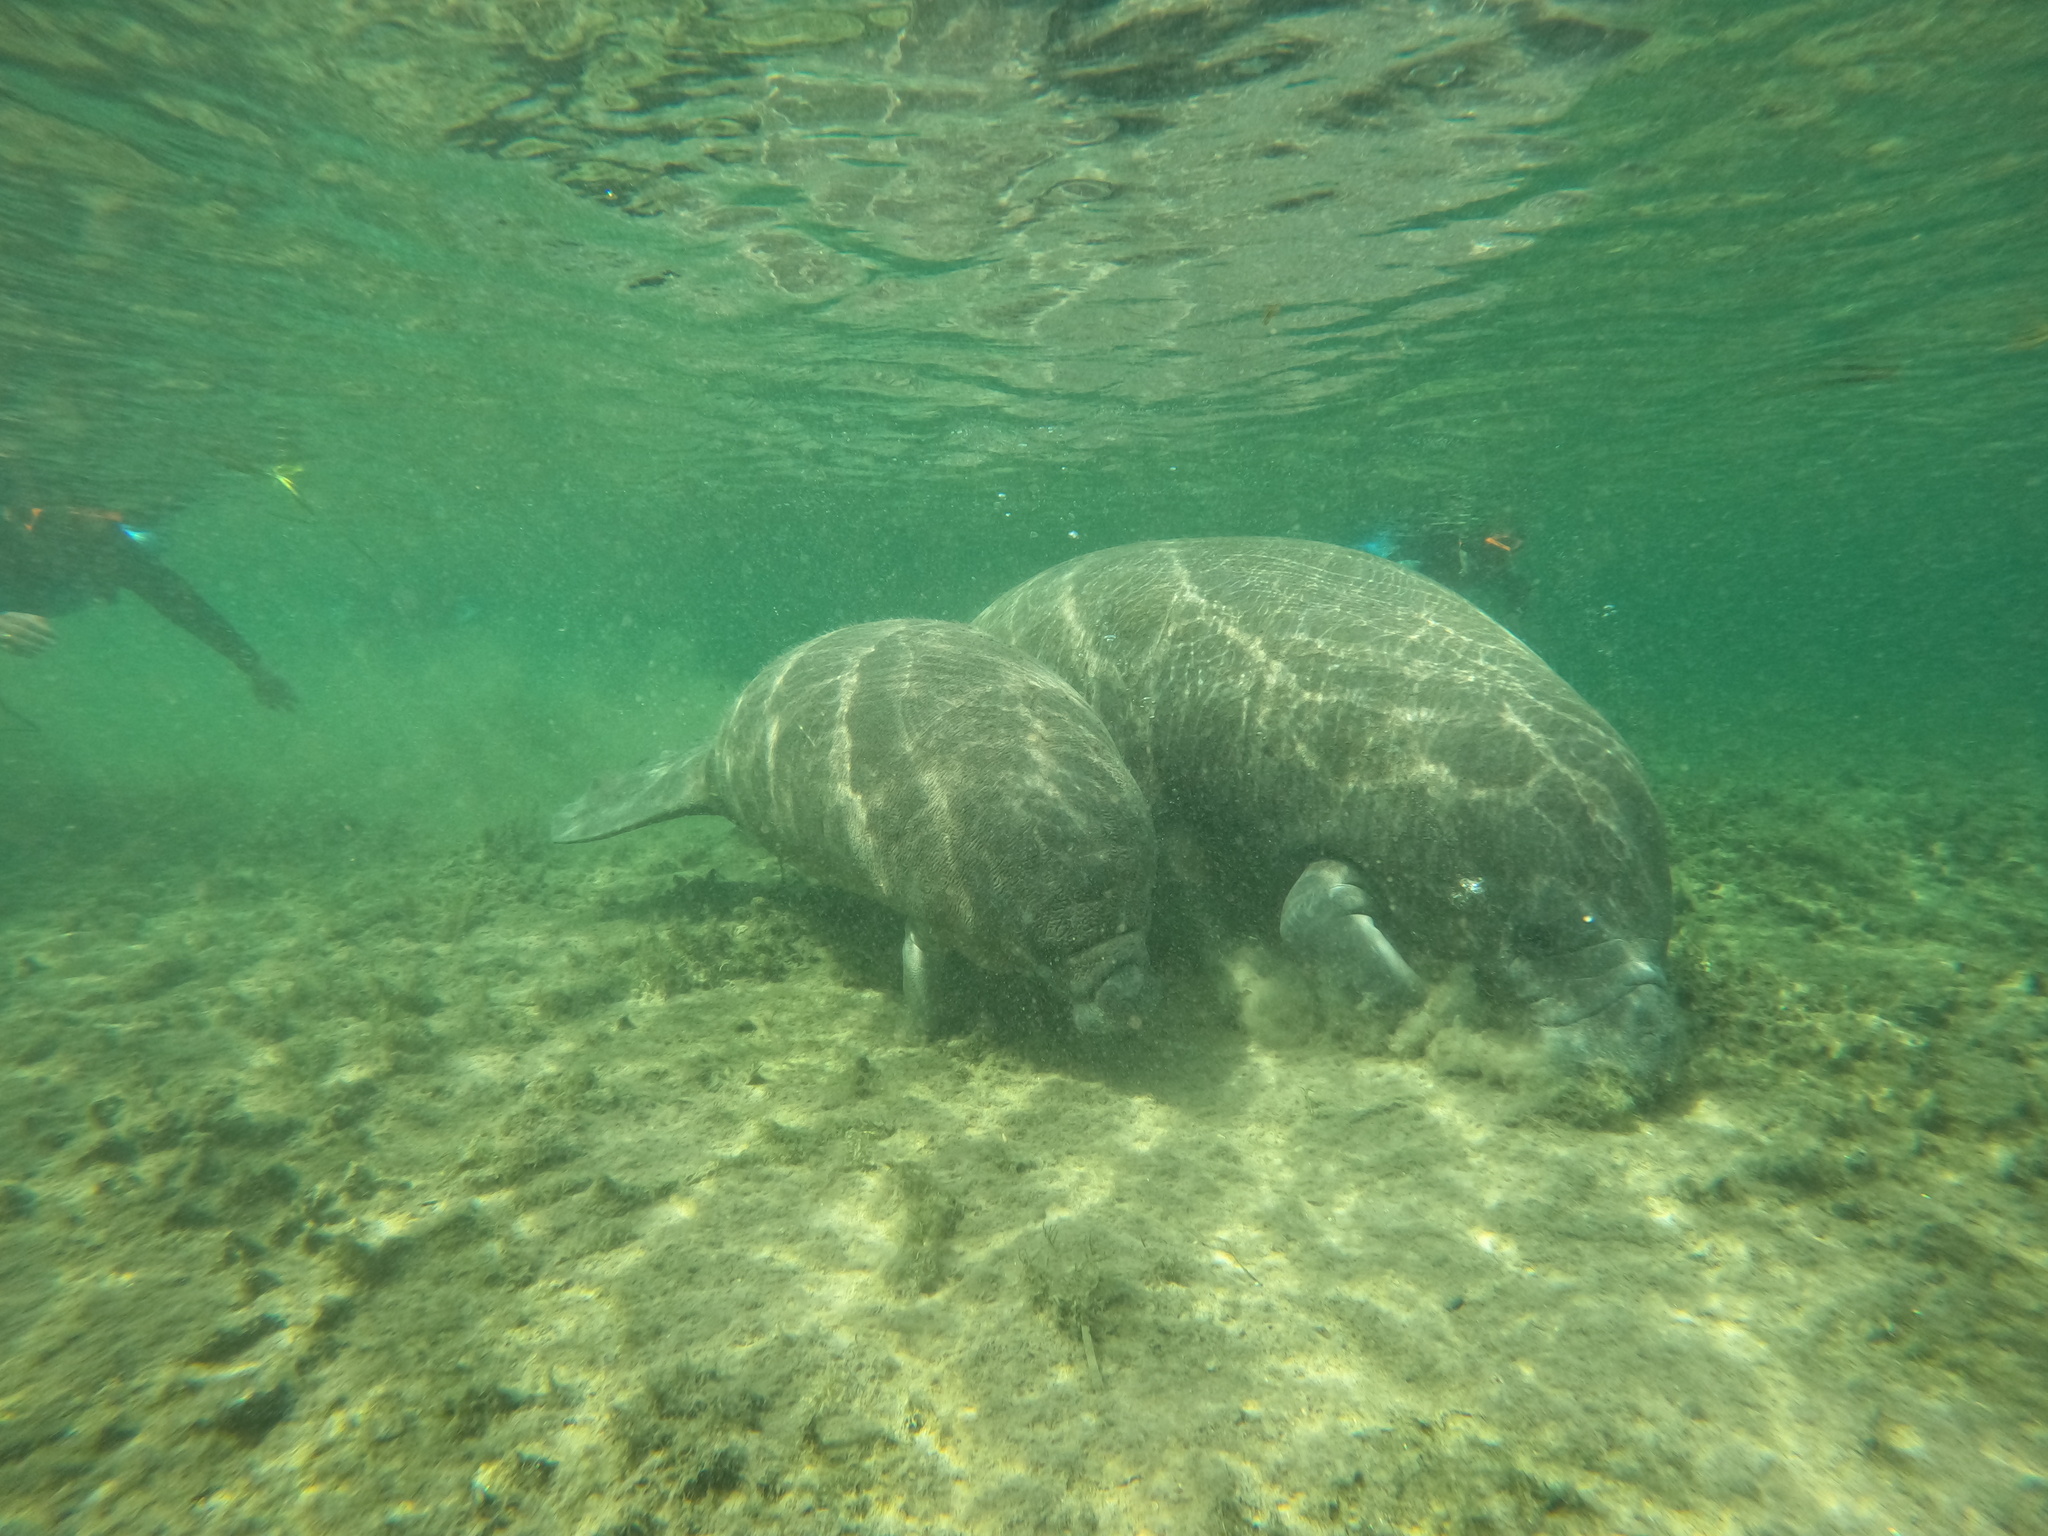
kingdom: Animalia
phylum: Chordata
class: Mammalia
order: Sirenia
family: Trichechidae
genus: Trichechus
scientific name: Trichechus manatus
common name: West indian manatee
